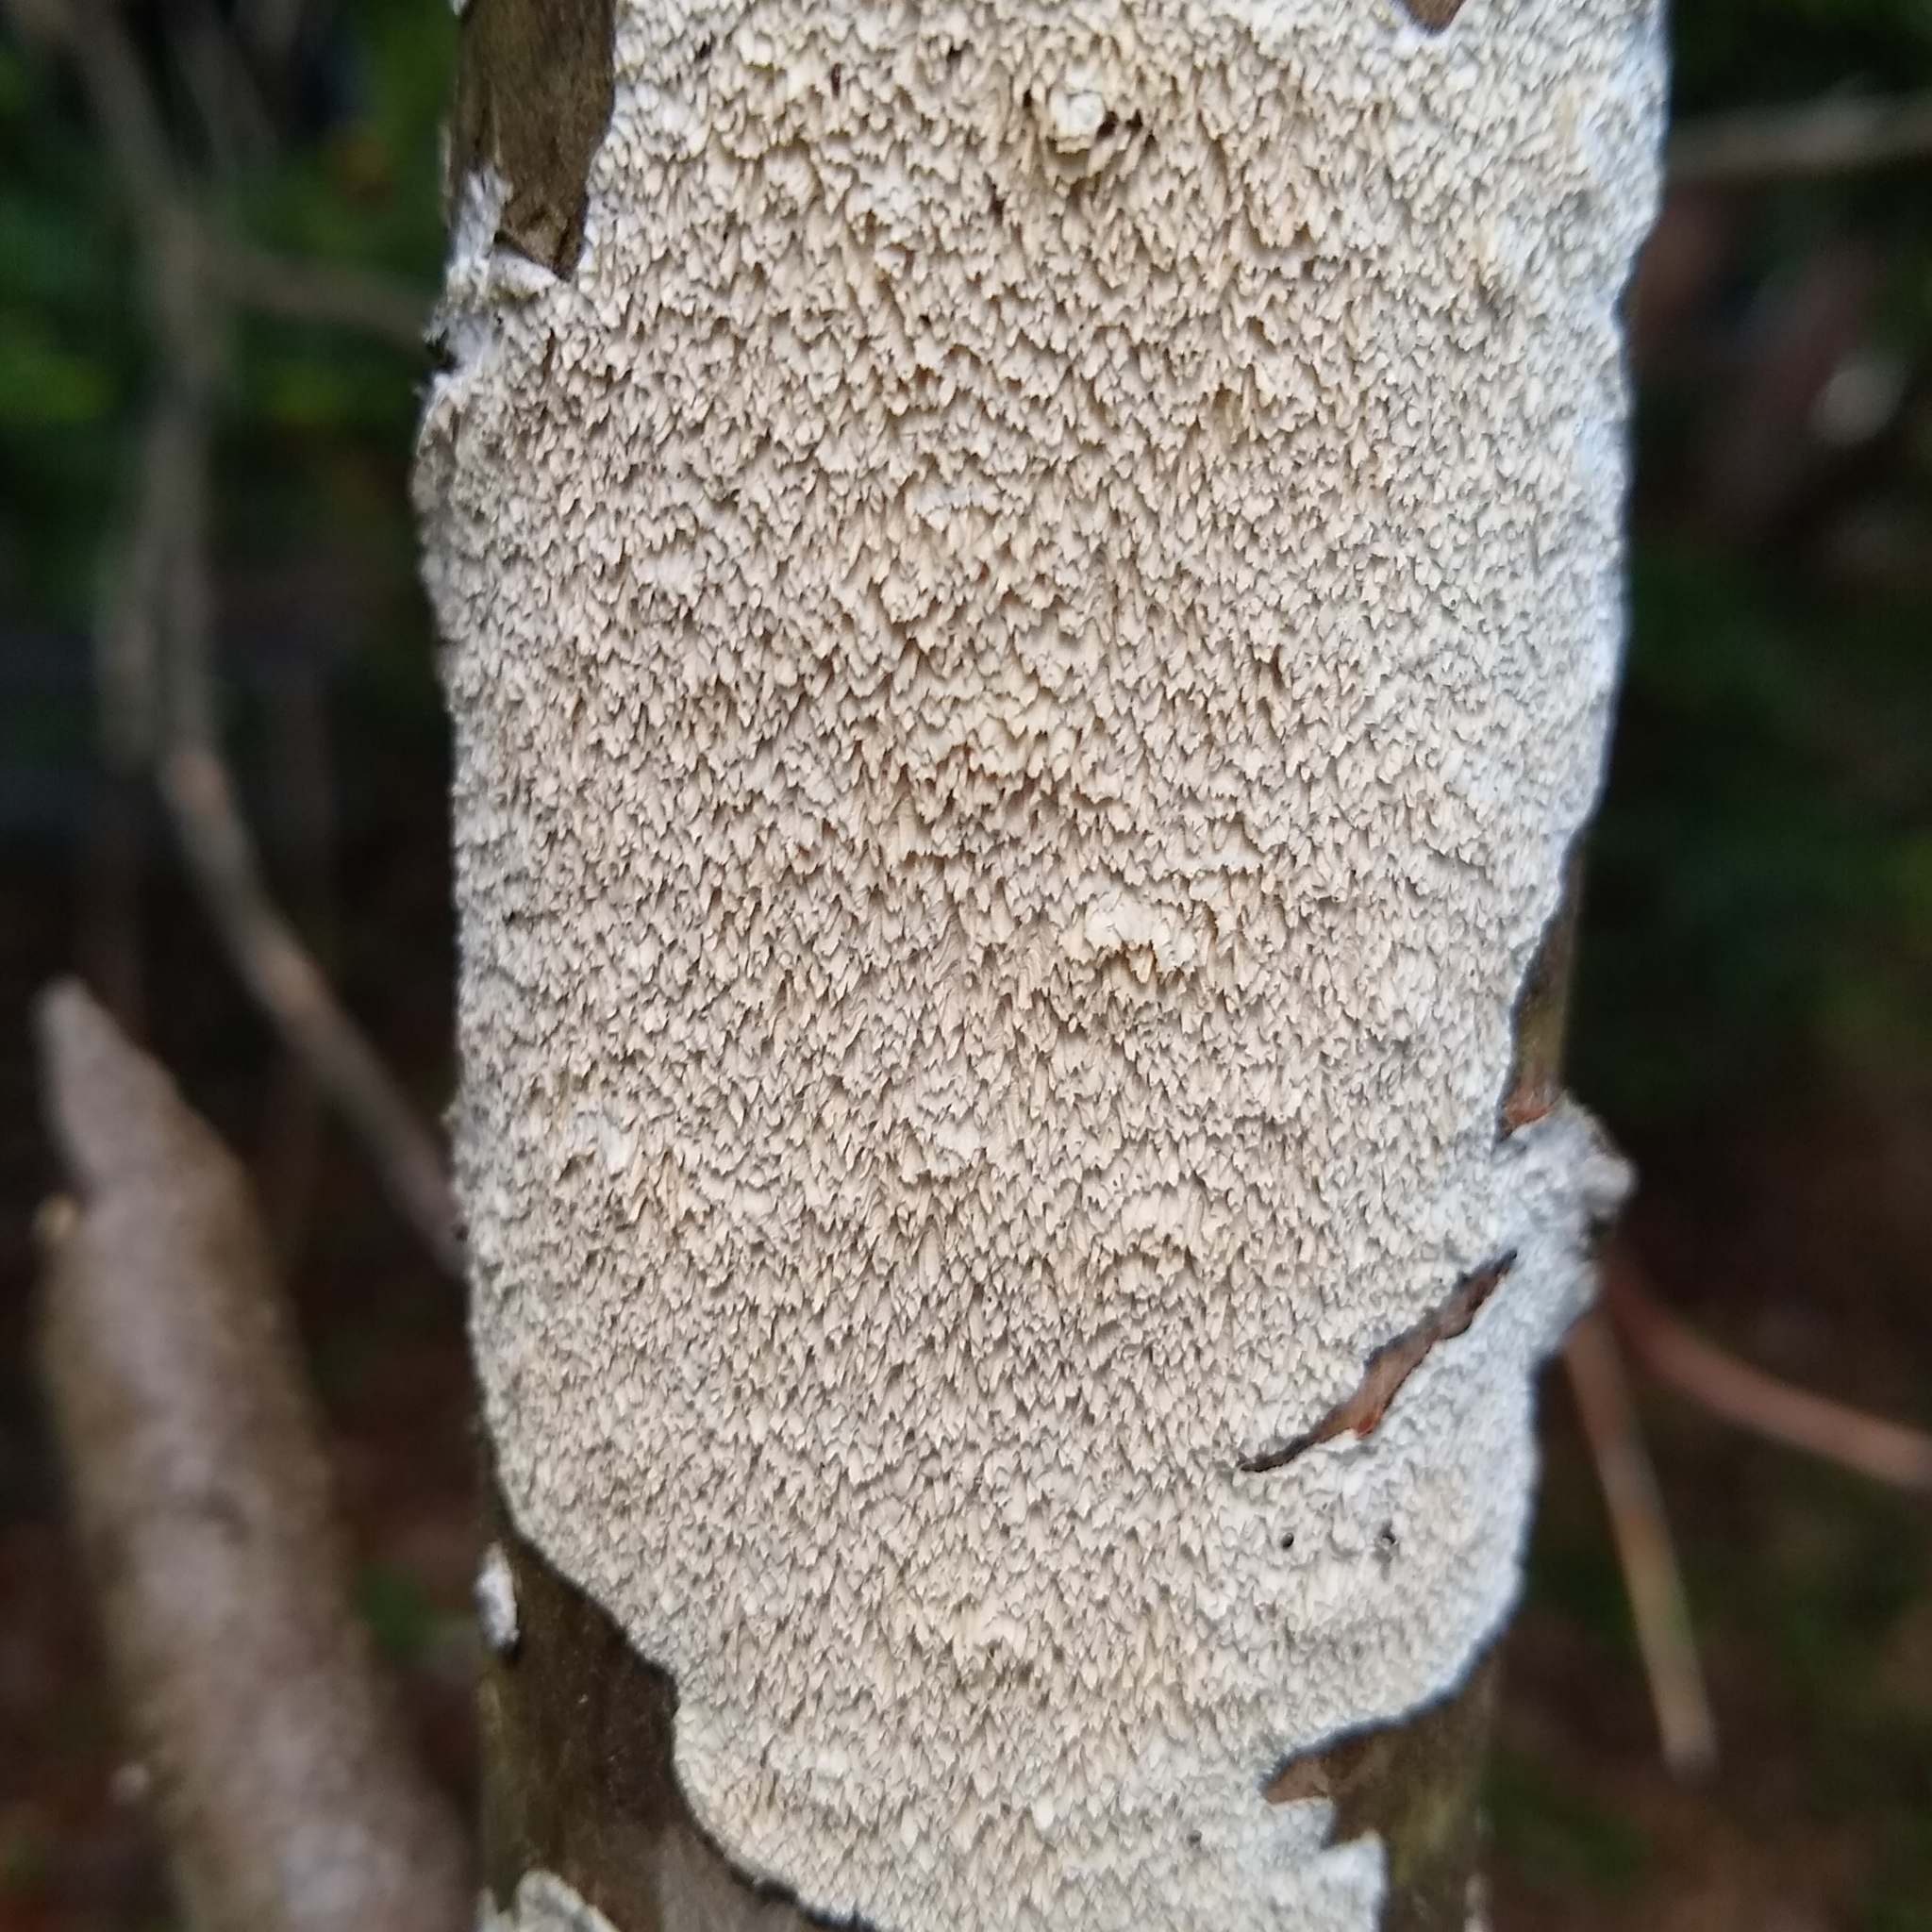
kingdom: Fungi
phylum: Basidiomycota
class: Agaricomycetes
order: Polyporales
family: Irpicaceae
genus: Irpex
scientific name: Irpex lacteus
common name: Milk-white toothed polypore
